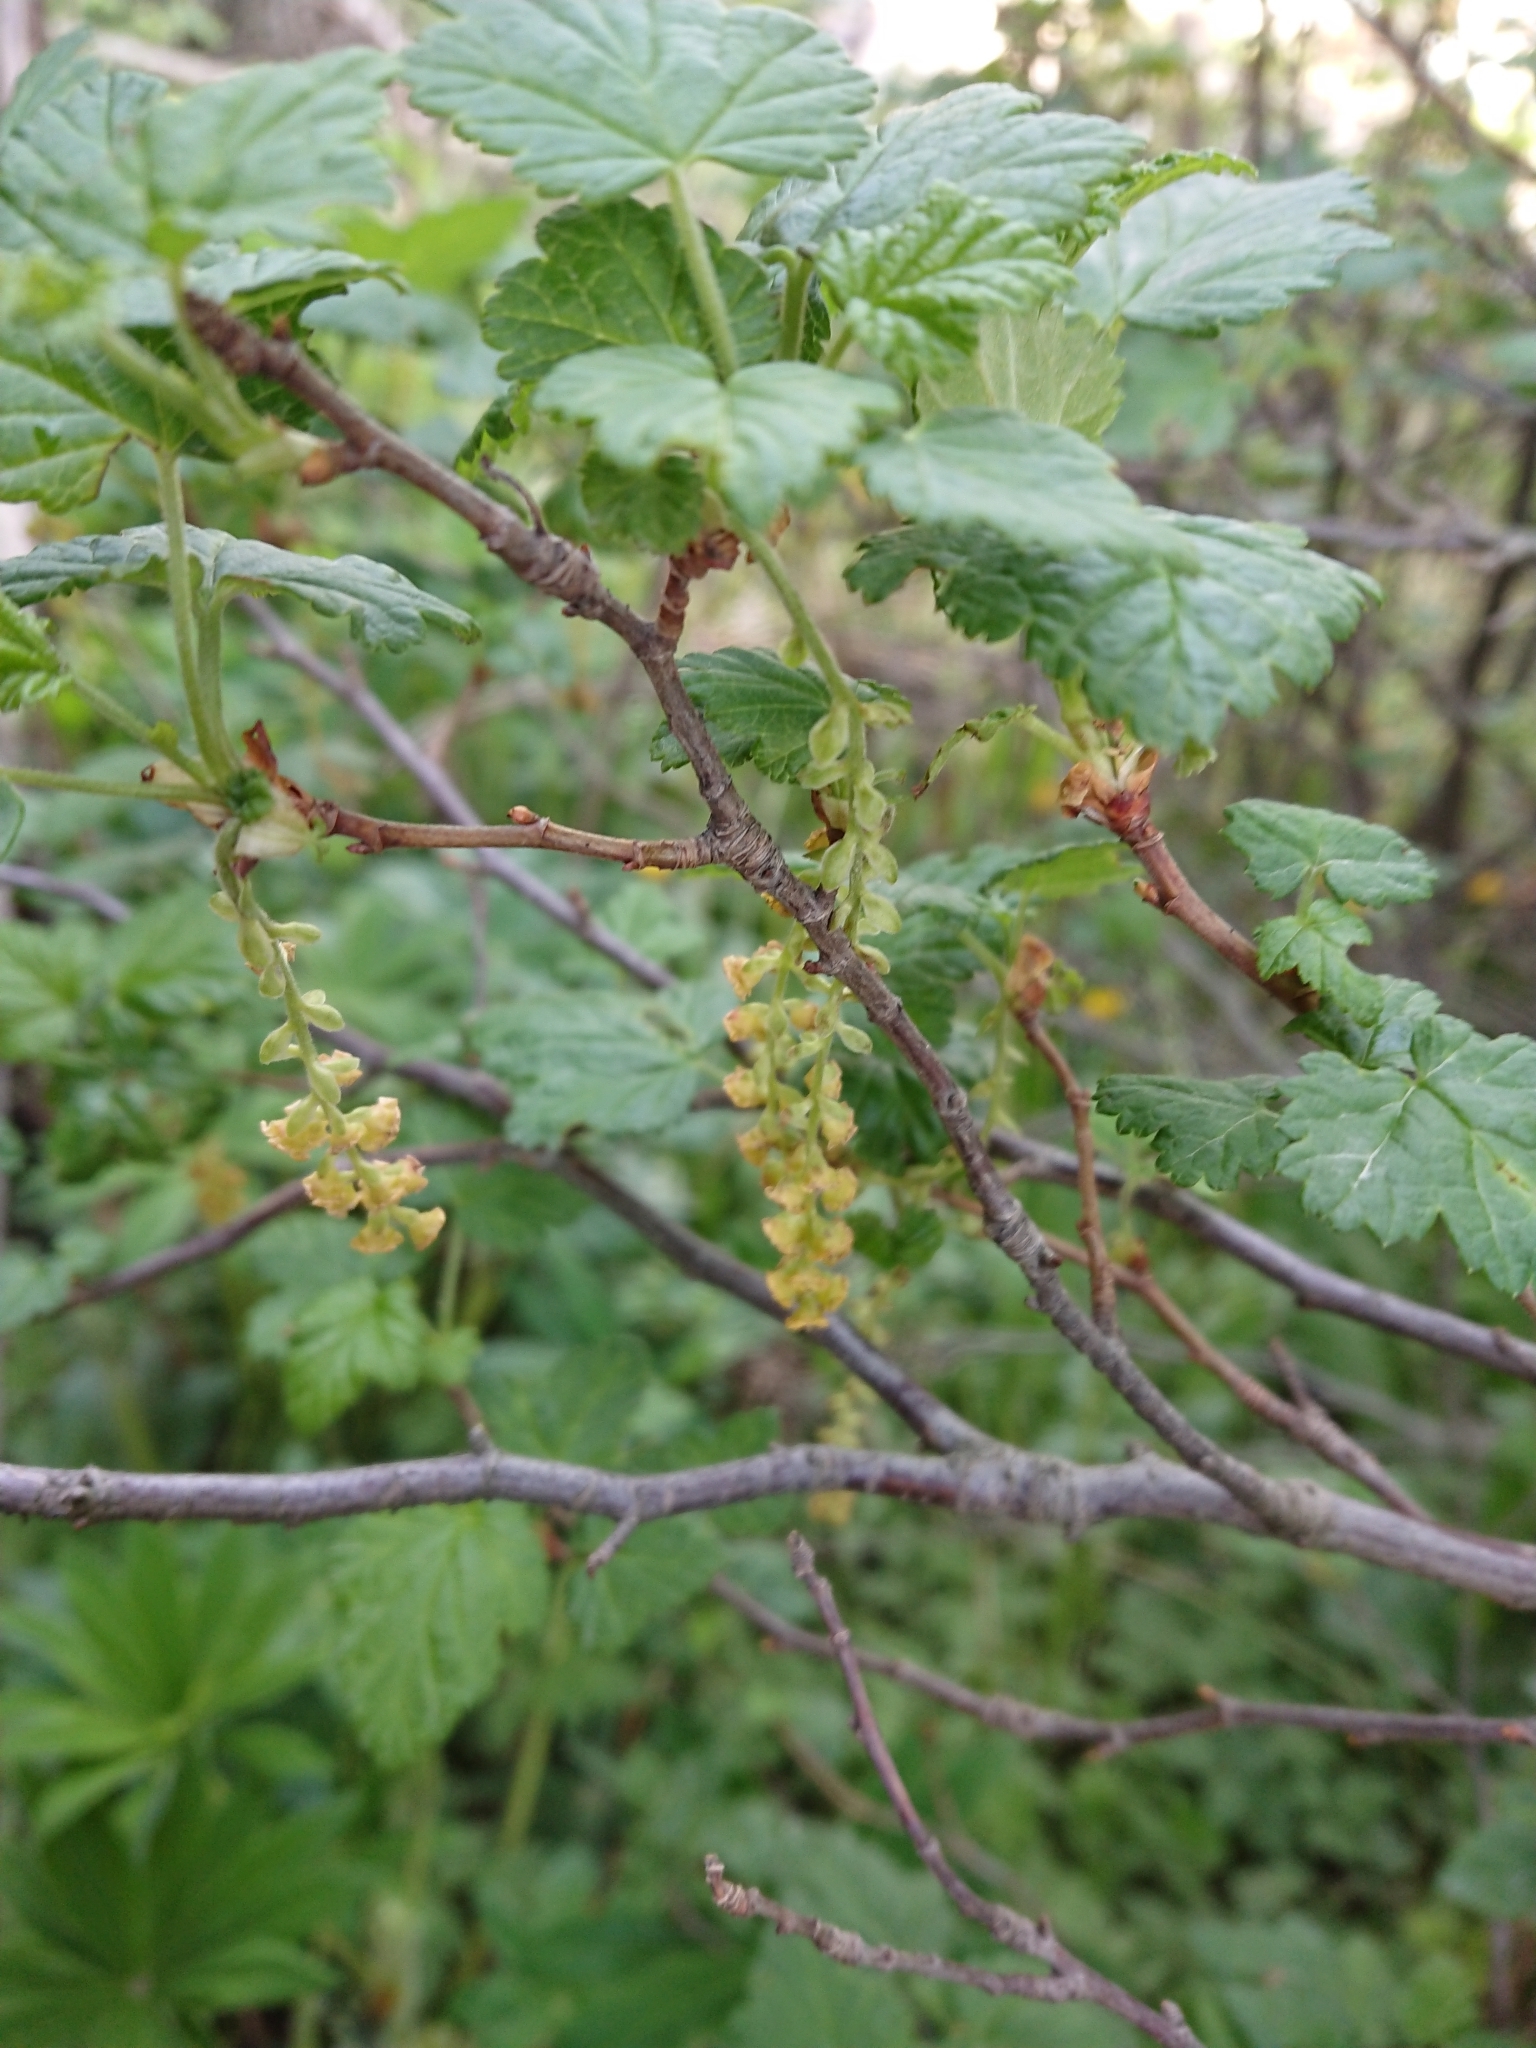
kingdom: Plantae
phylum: Tracheophyta
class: Magnoliopsida
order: Saxifragales
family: Grossulariaceae
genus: Ribes
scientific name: Ribes magellanicum
